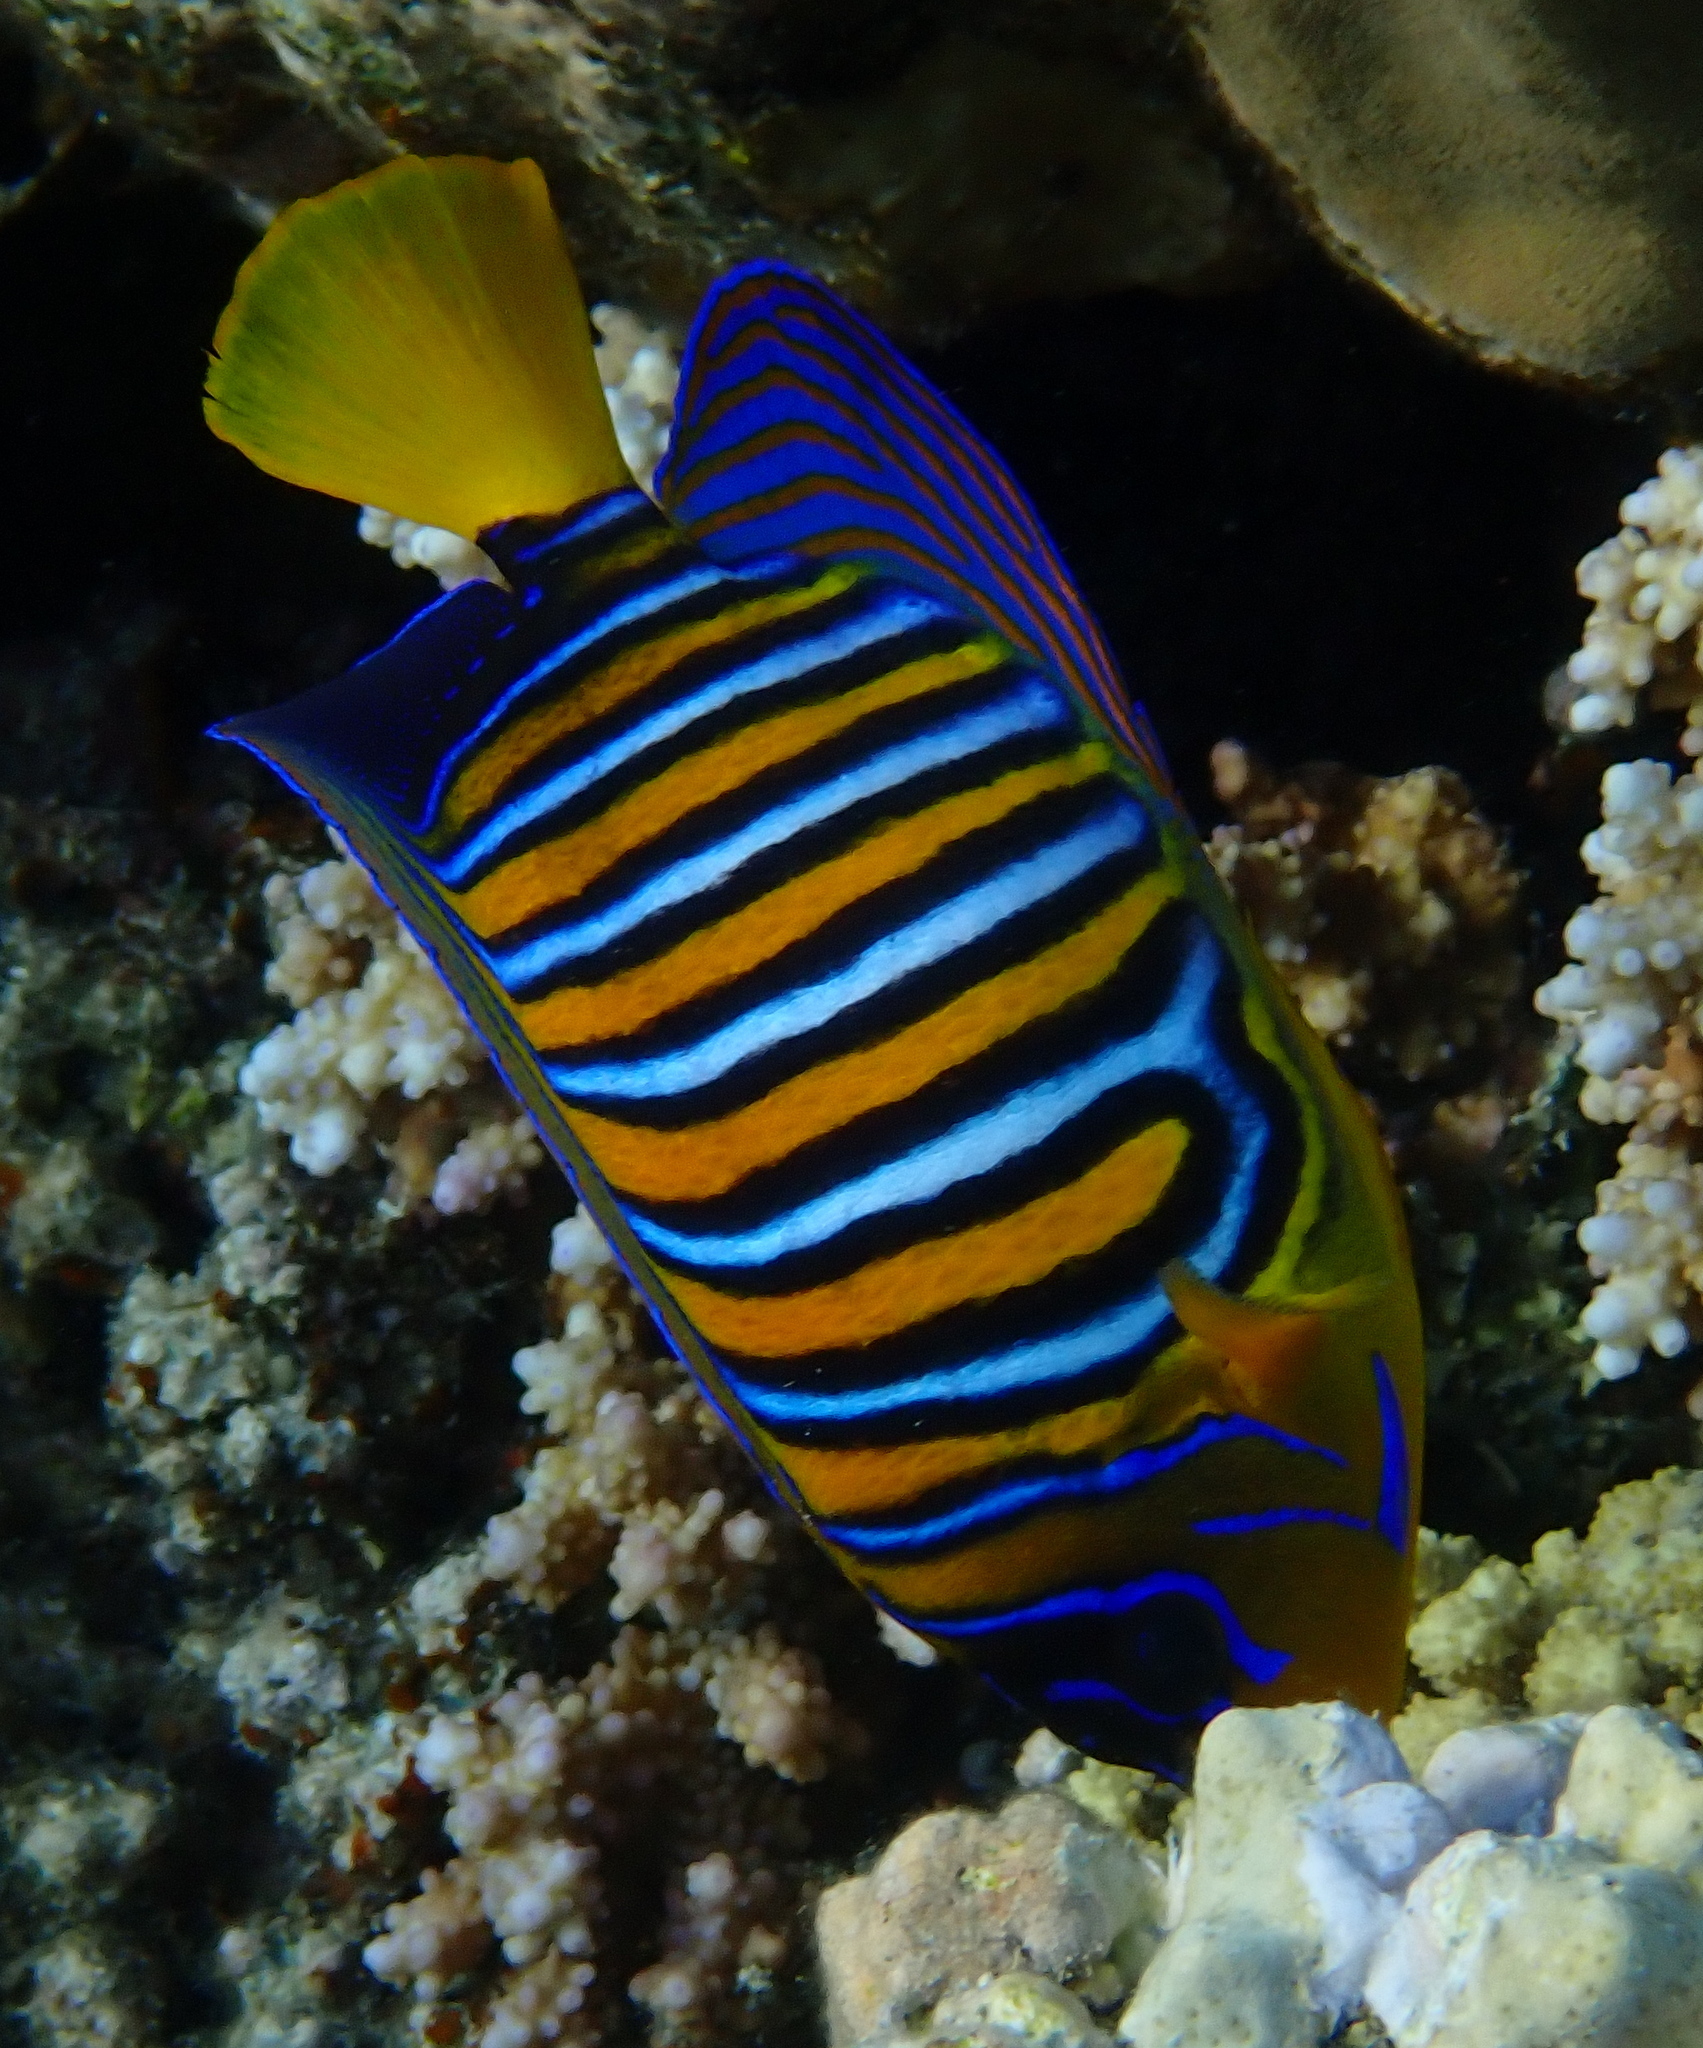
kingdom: Animalia
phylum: Chordata
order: Perciformes
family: Pomacanthidae
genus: Pygoplites
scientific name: Pygoplites diacanthus
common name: Regal angelfish
